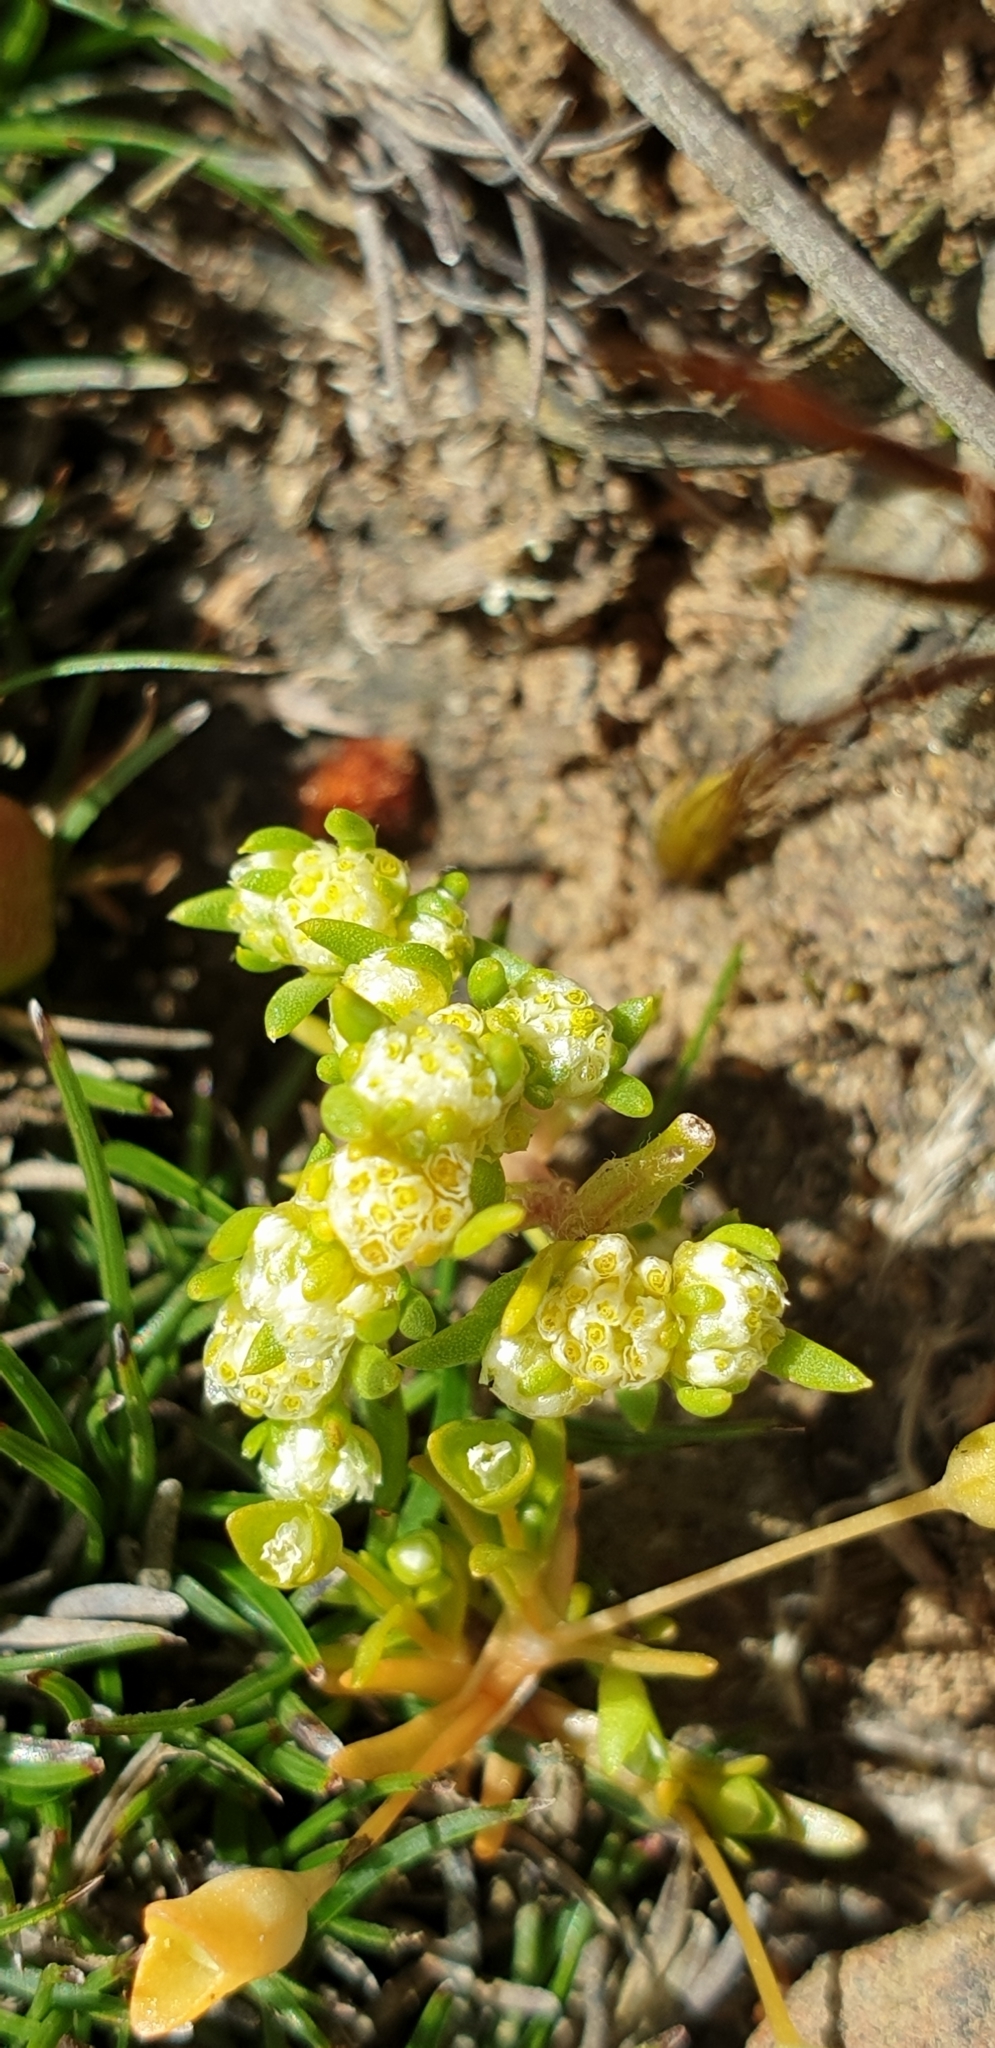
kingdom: Plantae
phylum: Tracheophyta
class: Magnoliopsida
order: Asterales
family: Asteraceae
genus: Siloxerus
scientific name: Siloxerus multiflorus
